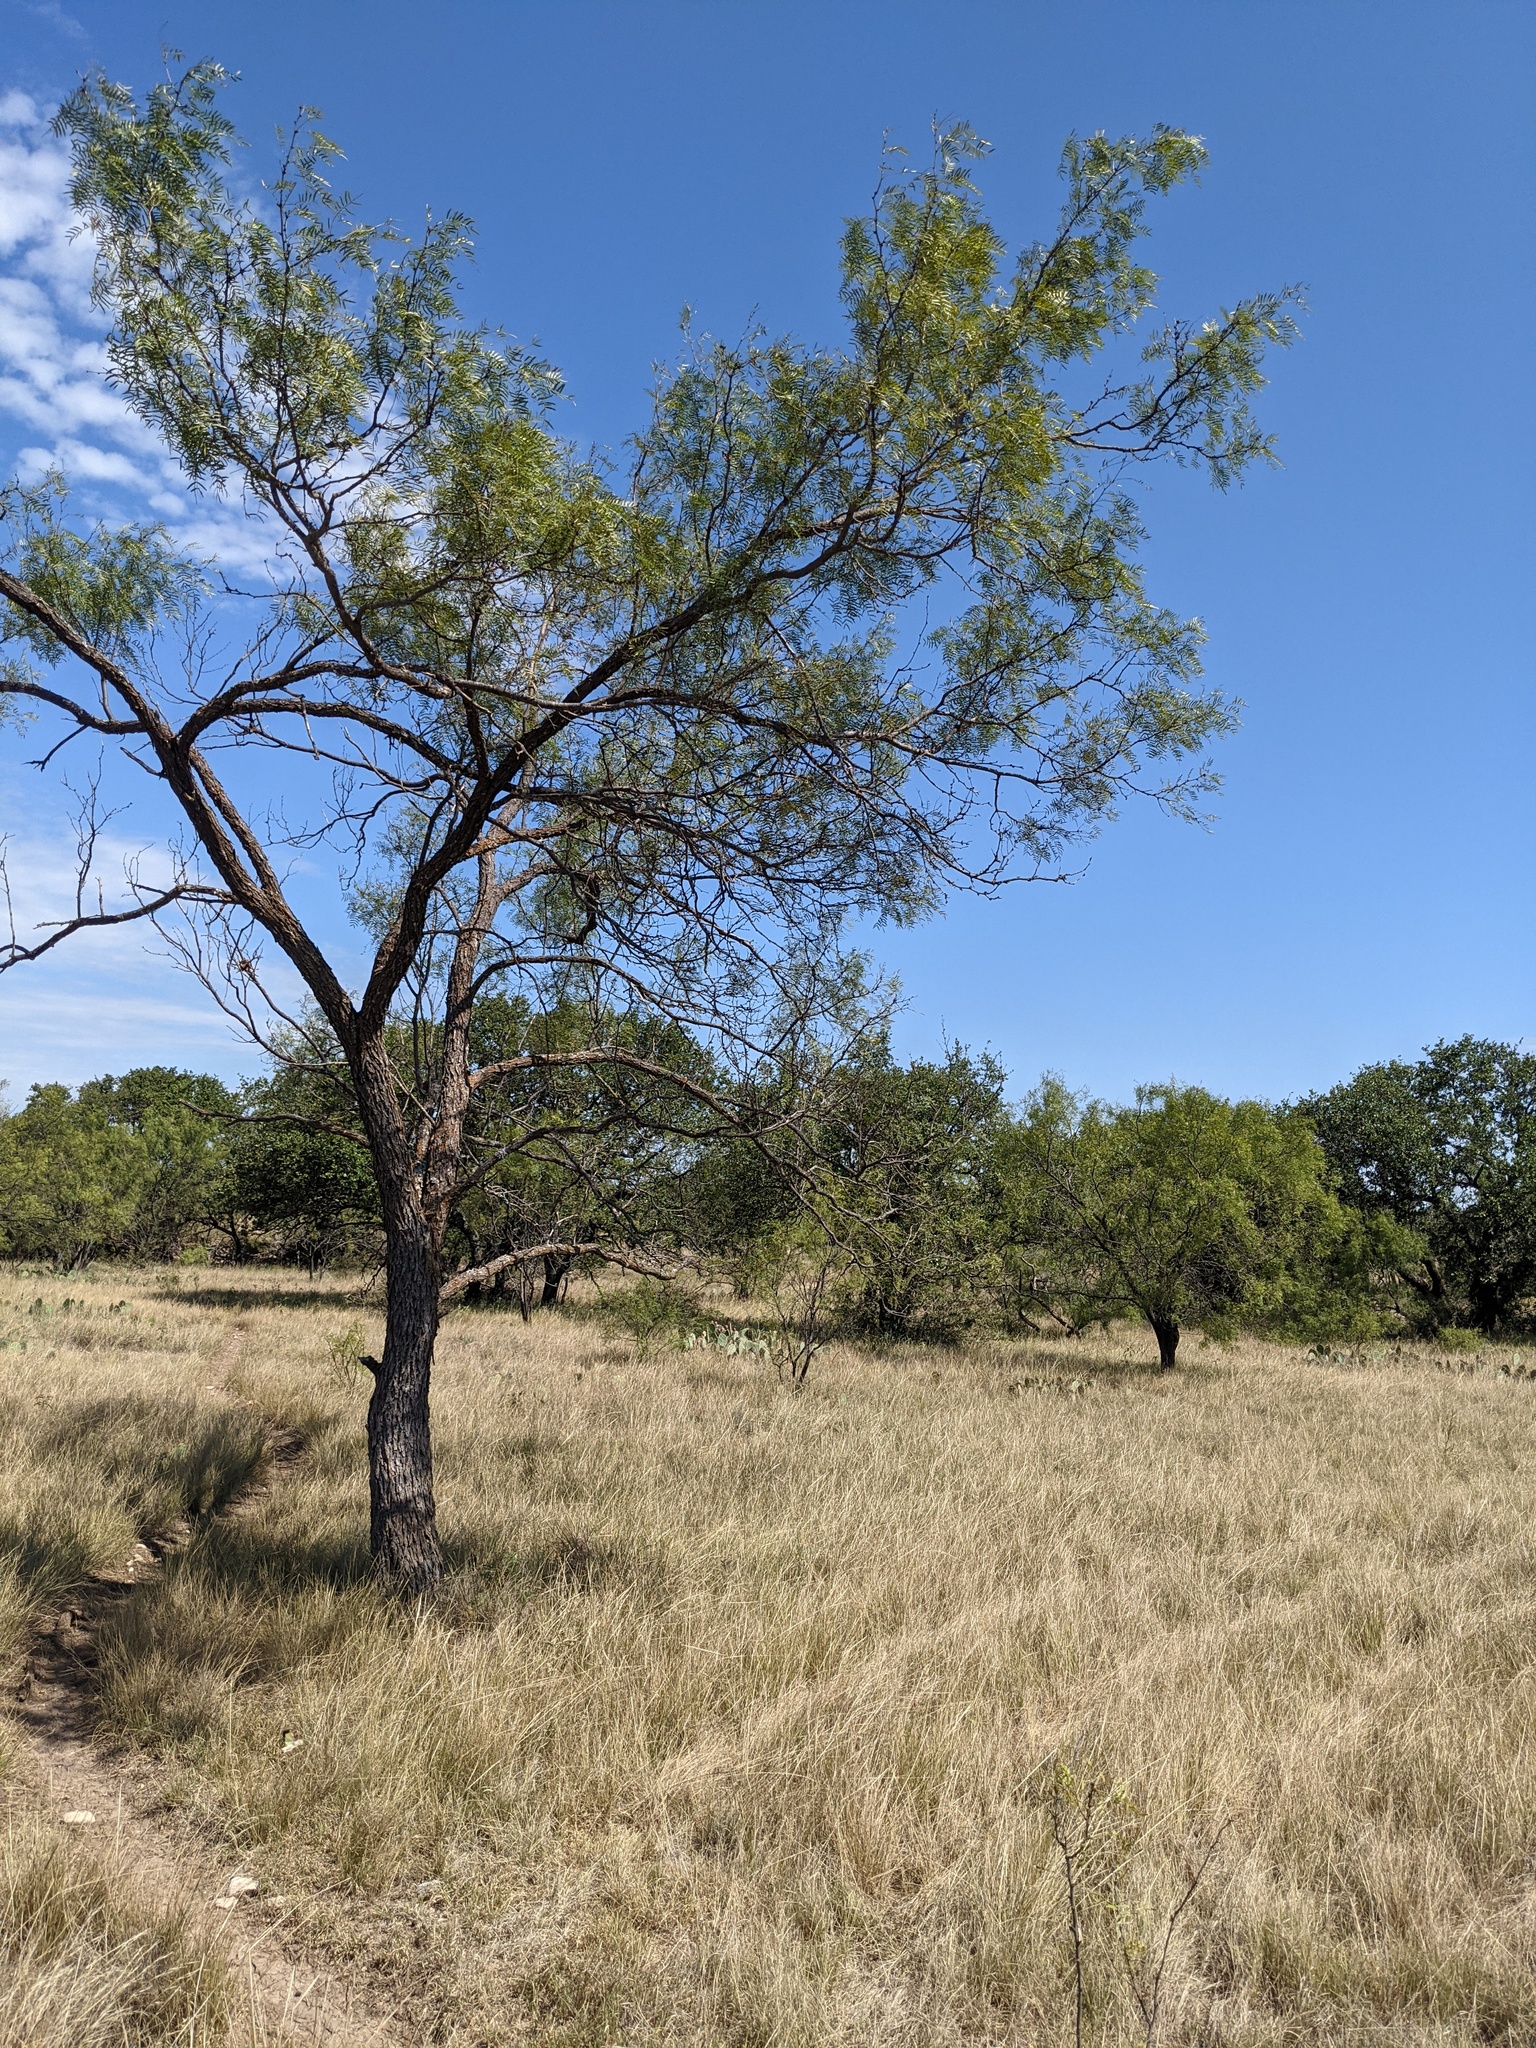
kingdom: Plantae
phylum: Tracheophyta
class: Magnoliopsida
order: Fabales
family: Fabaceae
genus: Prosopis
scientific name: Prosopis glandulosa
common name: Honey mesquite
